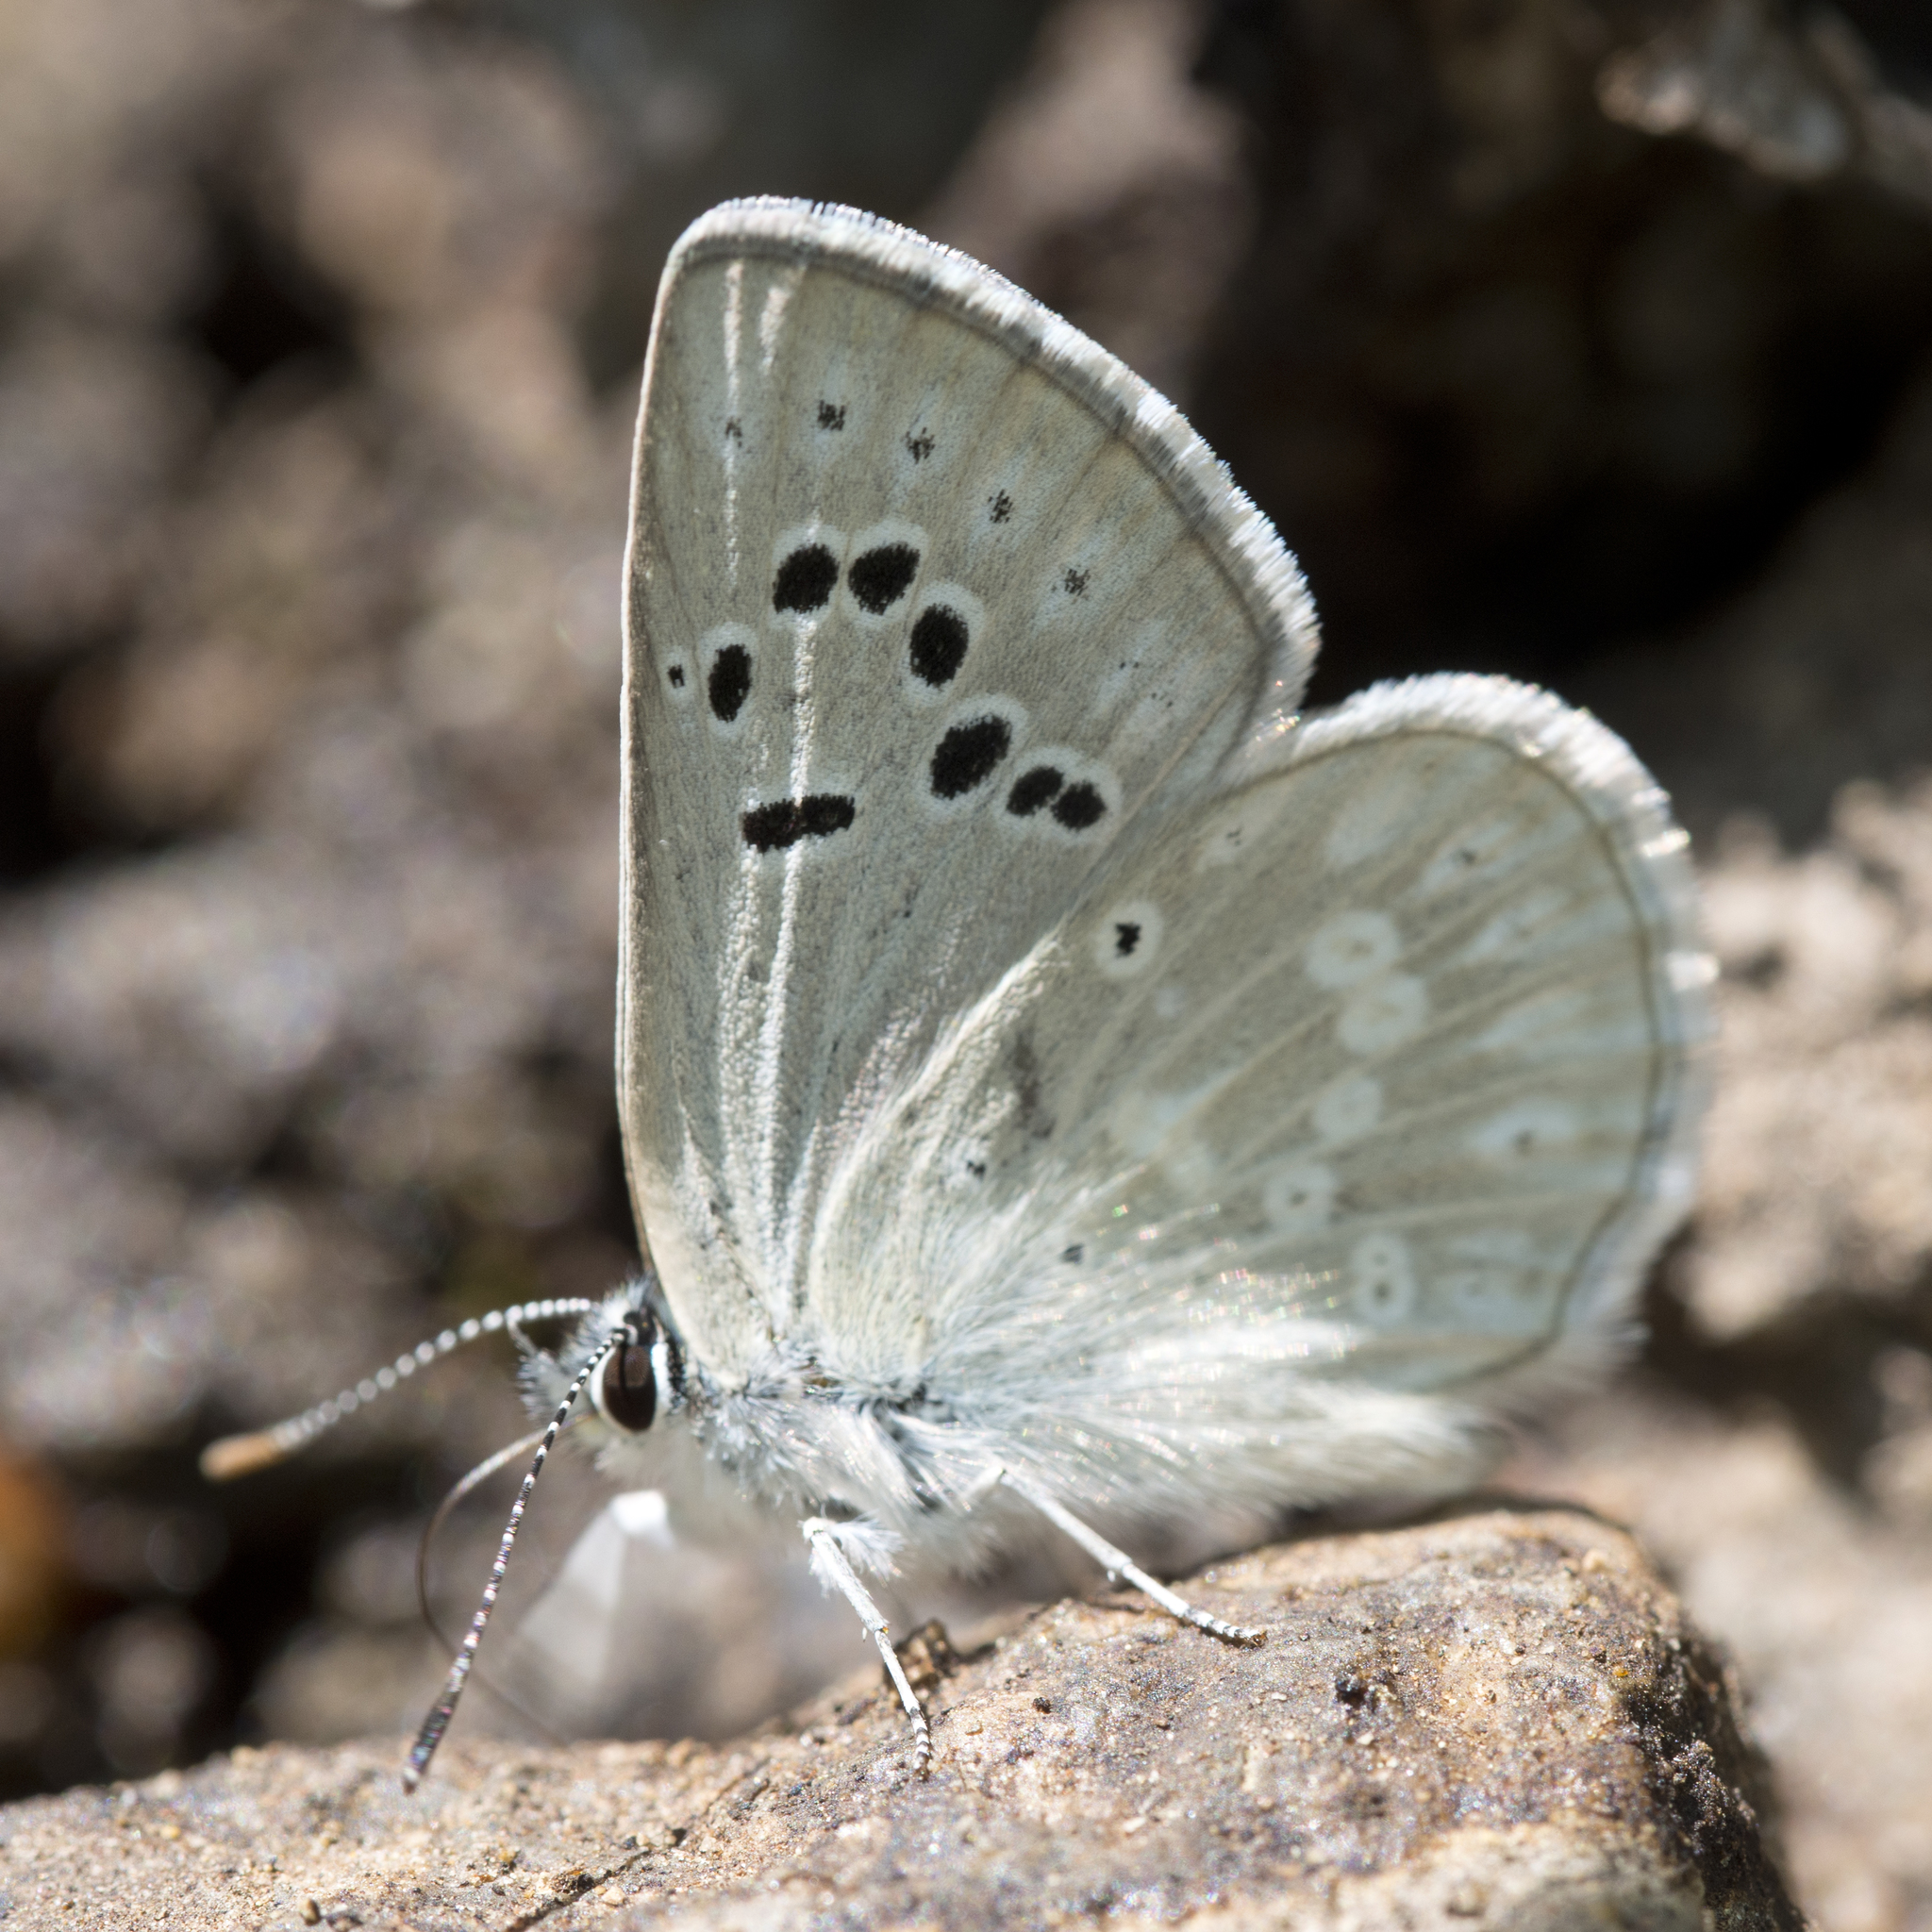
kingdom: Animalia
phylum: Arthropoda
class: Insecta
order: Lepidoptera
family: Lycaenidae
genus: Icaricia
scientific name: Icaricia icarioides
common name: Boisduval's blue
